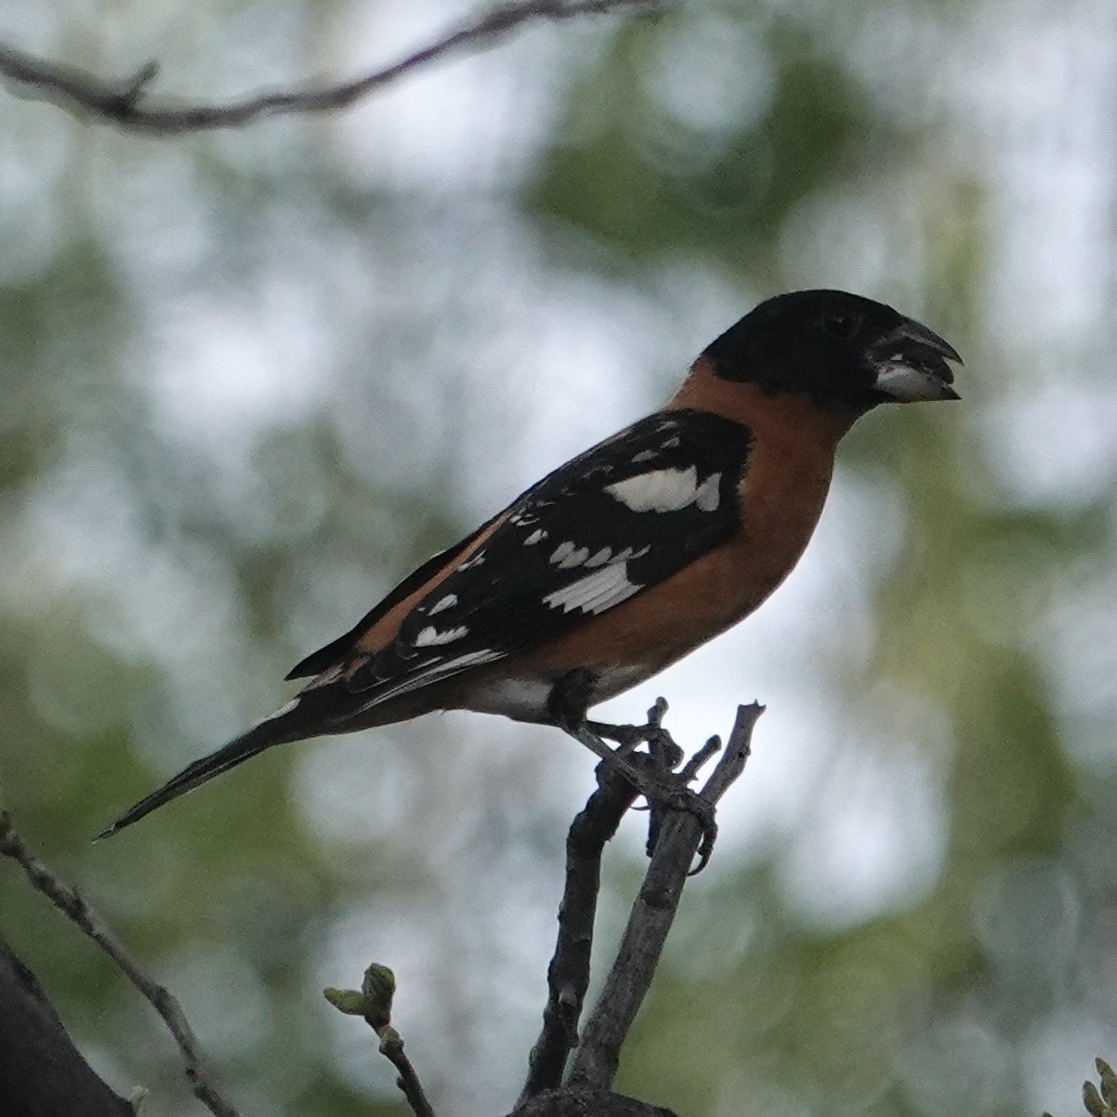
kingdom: Animalia
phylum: Chordata
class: Aves
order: Passeriformes
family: Cardinalidae
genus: Pheucticus
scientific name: Pheucticus melanocephalus
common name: Black-headed grosbeak
